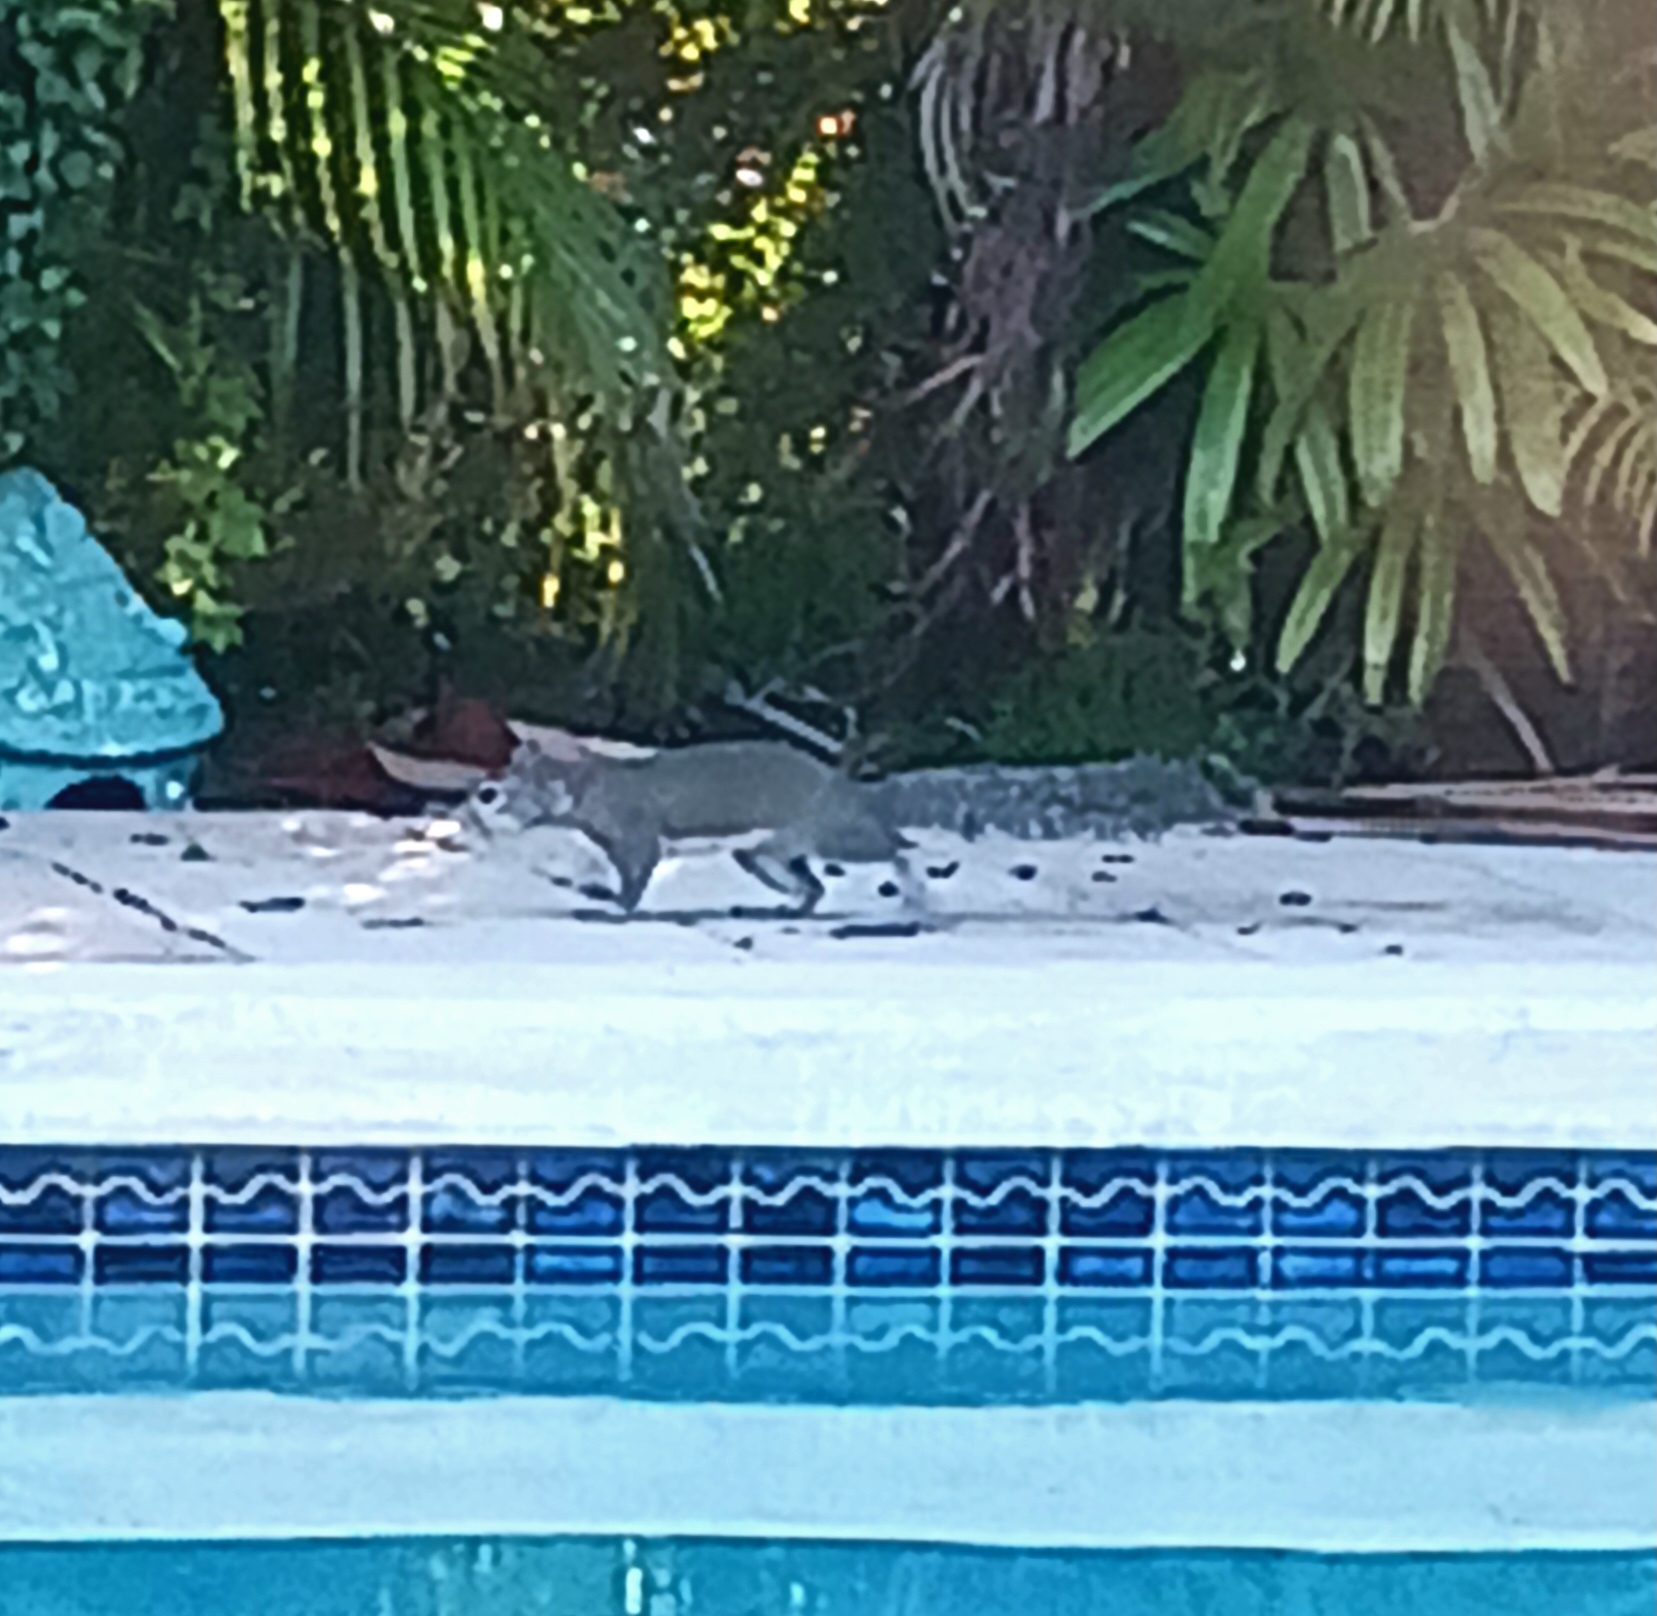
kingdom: Animalia
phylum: Chordata
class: Mammalia
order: Rodentia
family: Sciuridae
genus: Sciurus
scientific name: Sciurus carolinensis
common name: Eastern gray squirrel
